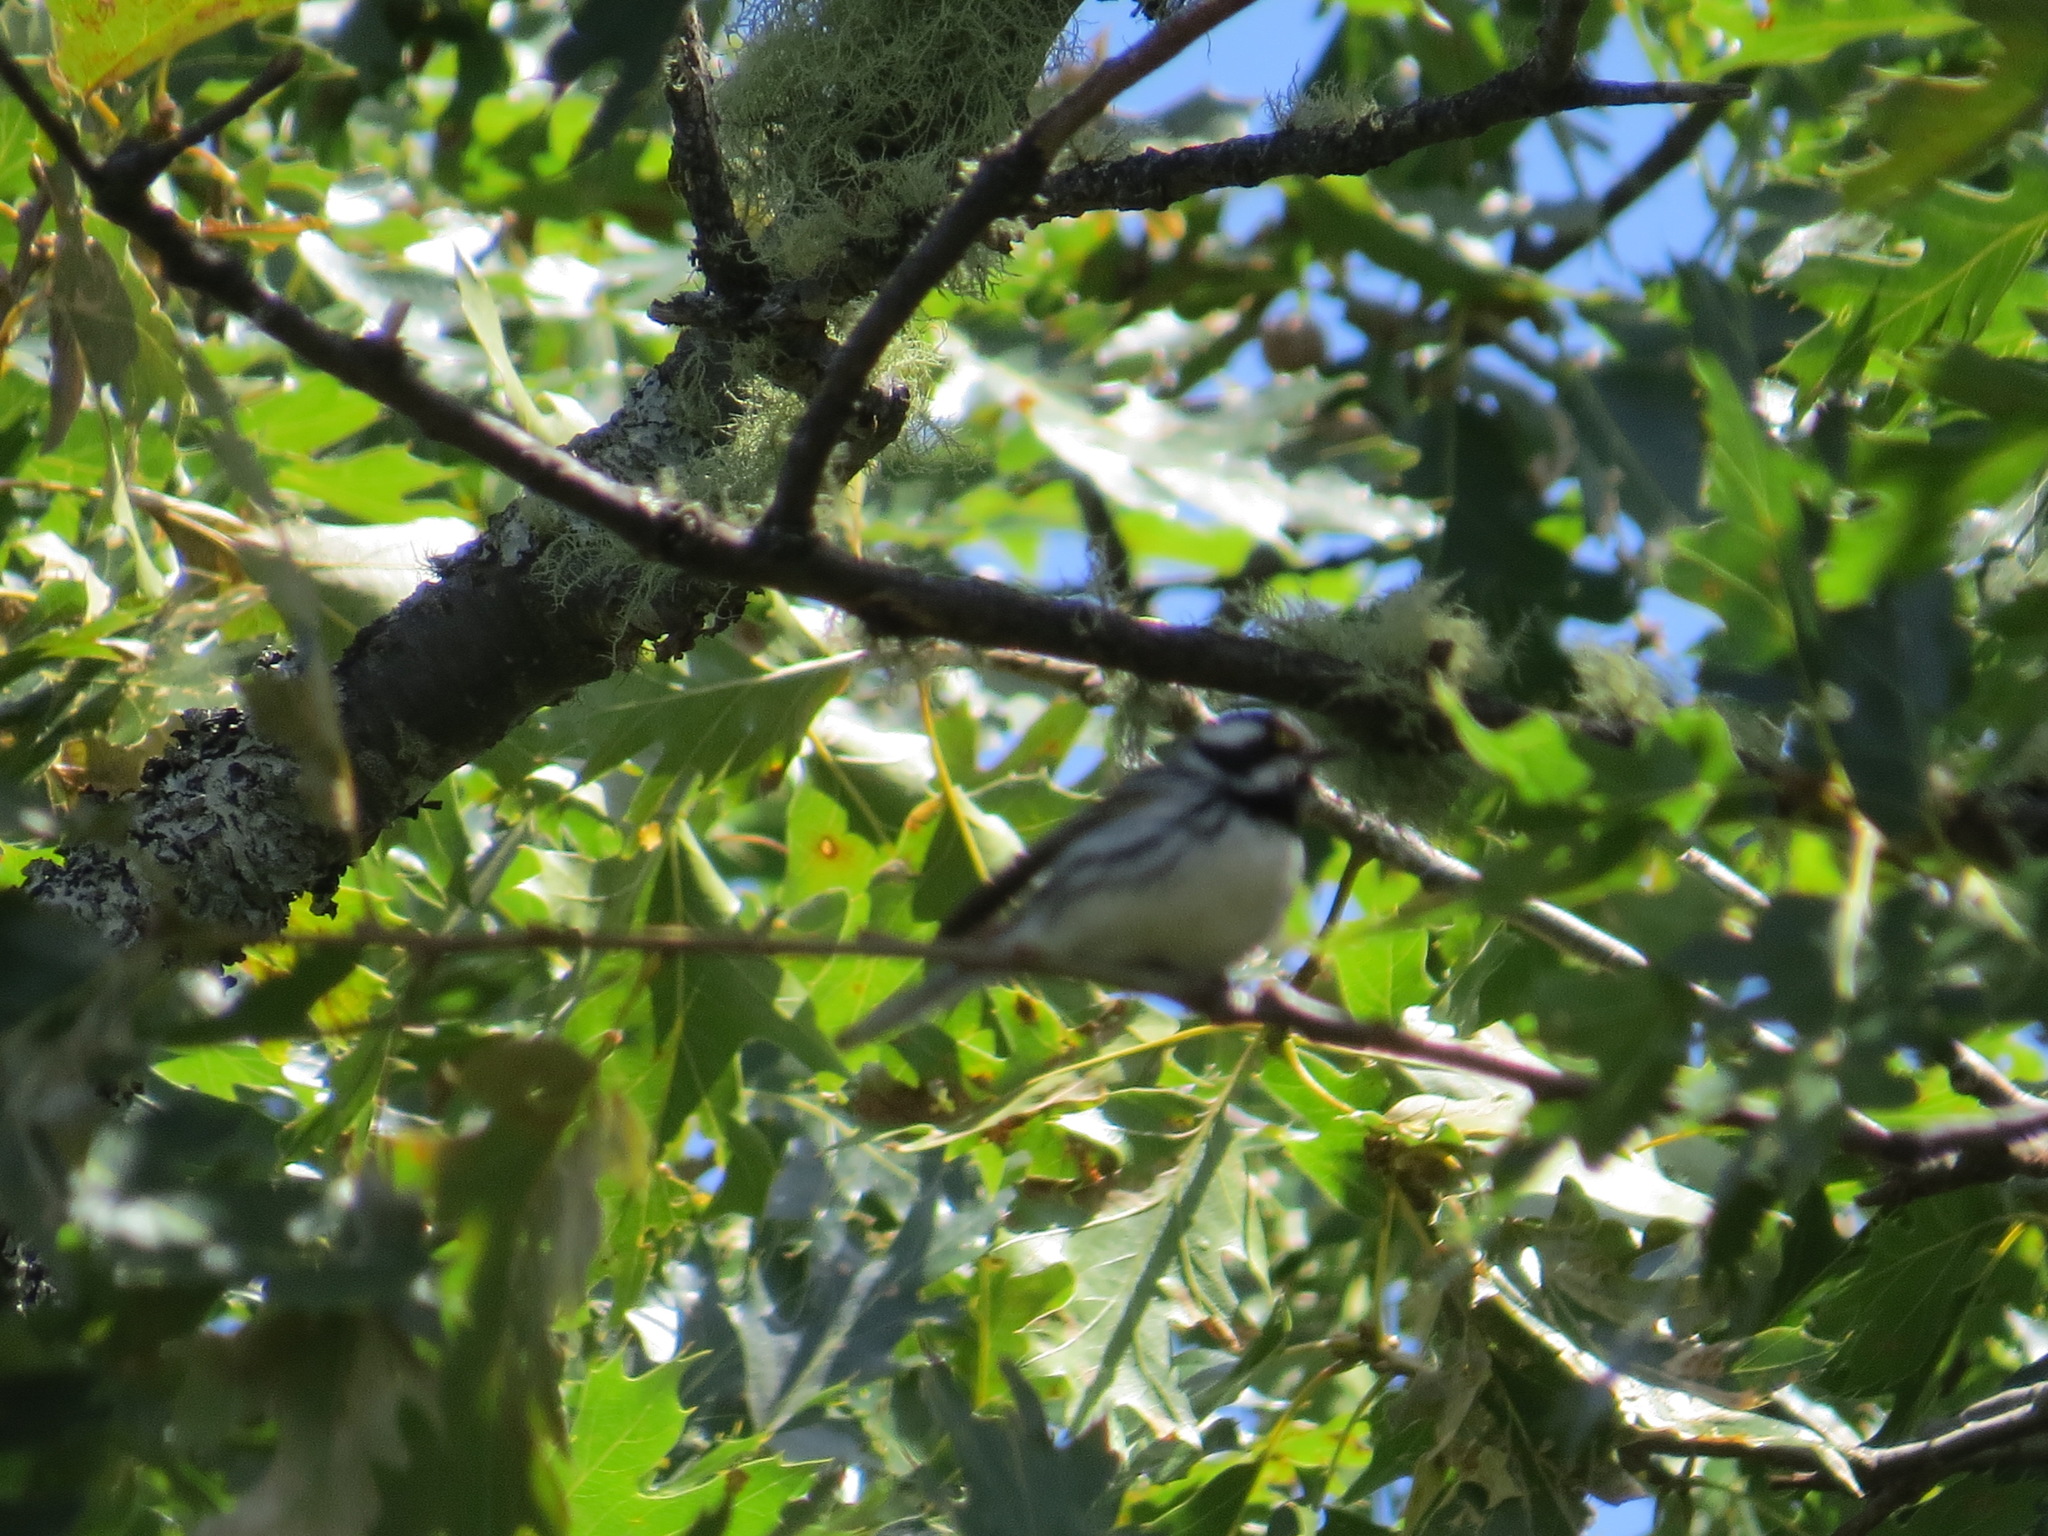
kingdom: Animalia
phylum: Chordata
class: Aves
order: Passeriformes
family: Parulidae
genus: Setophaga
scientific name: Setophaga nigrescens
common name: Black-throated gray warbler
